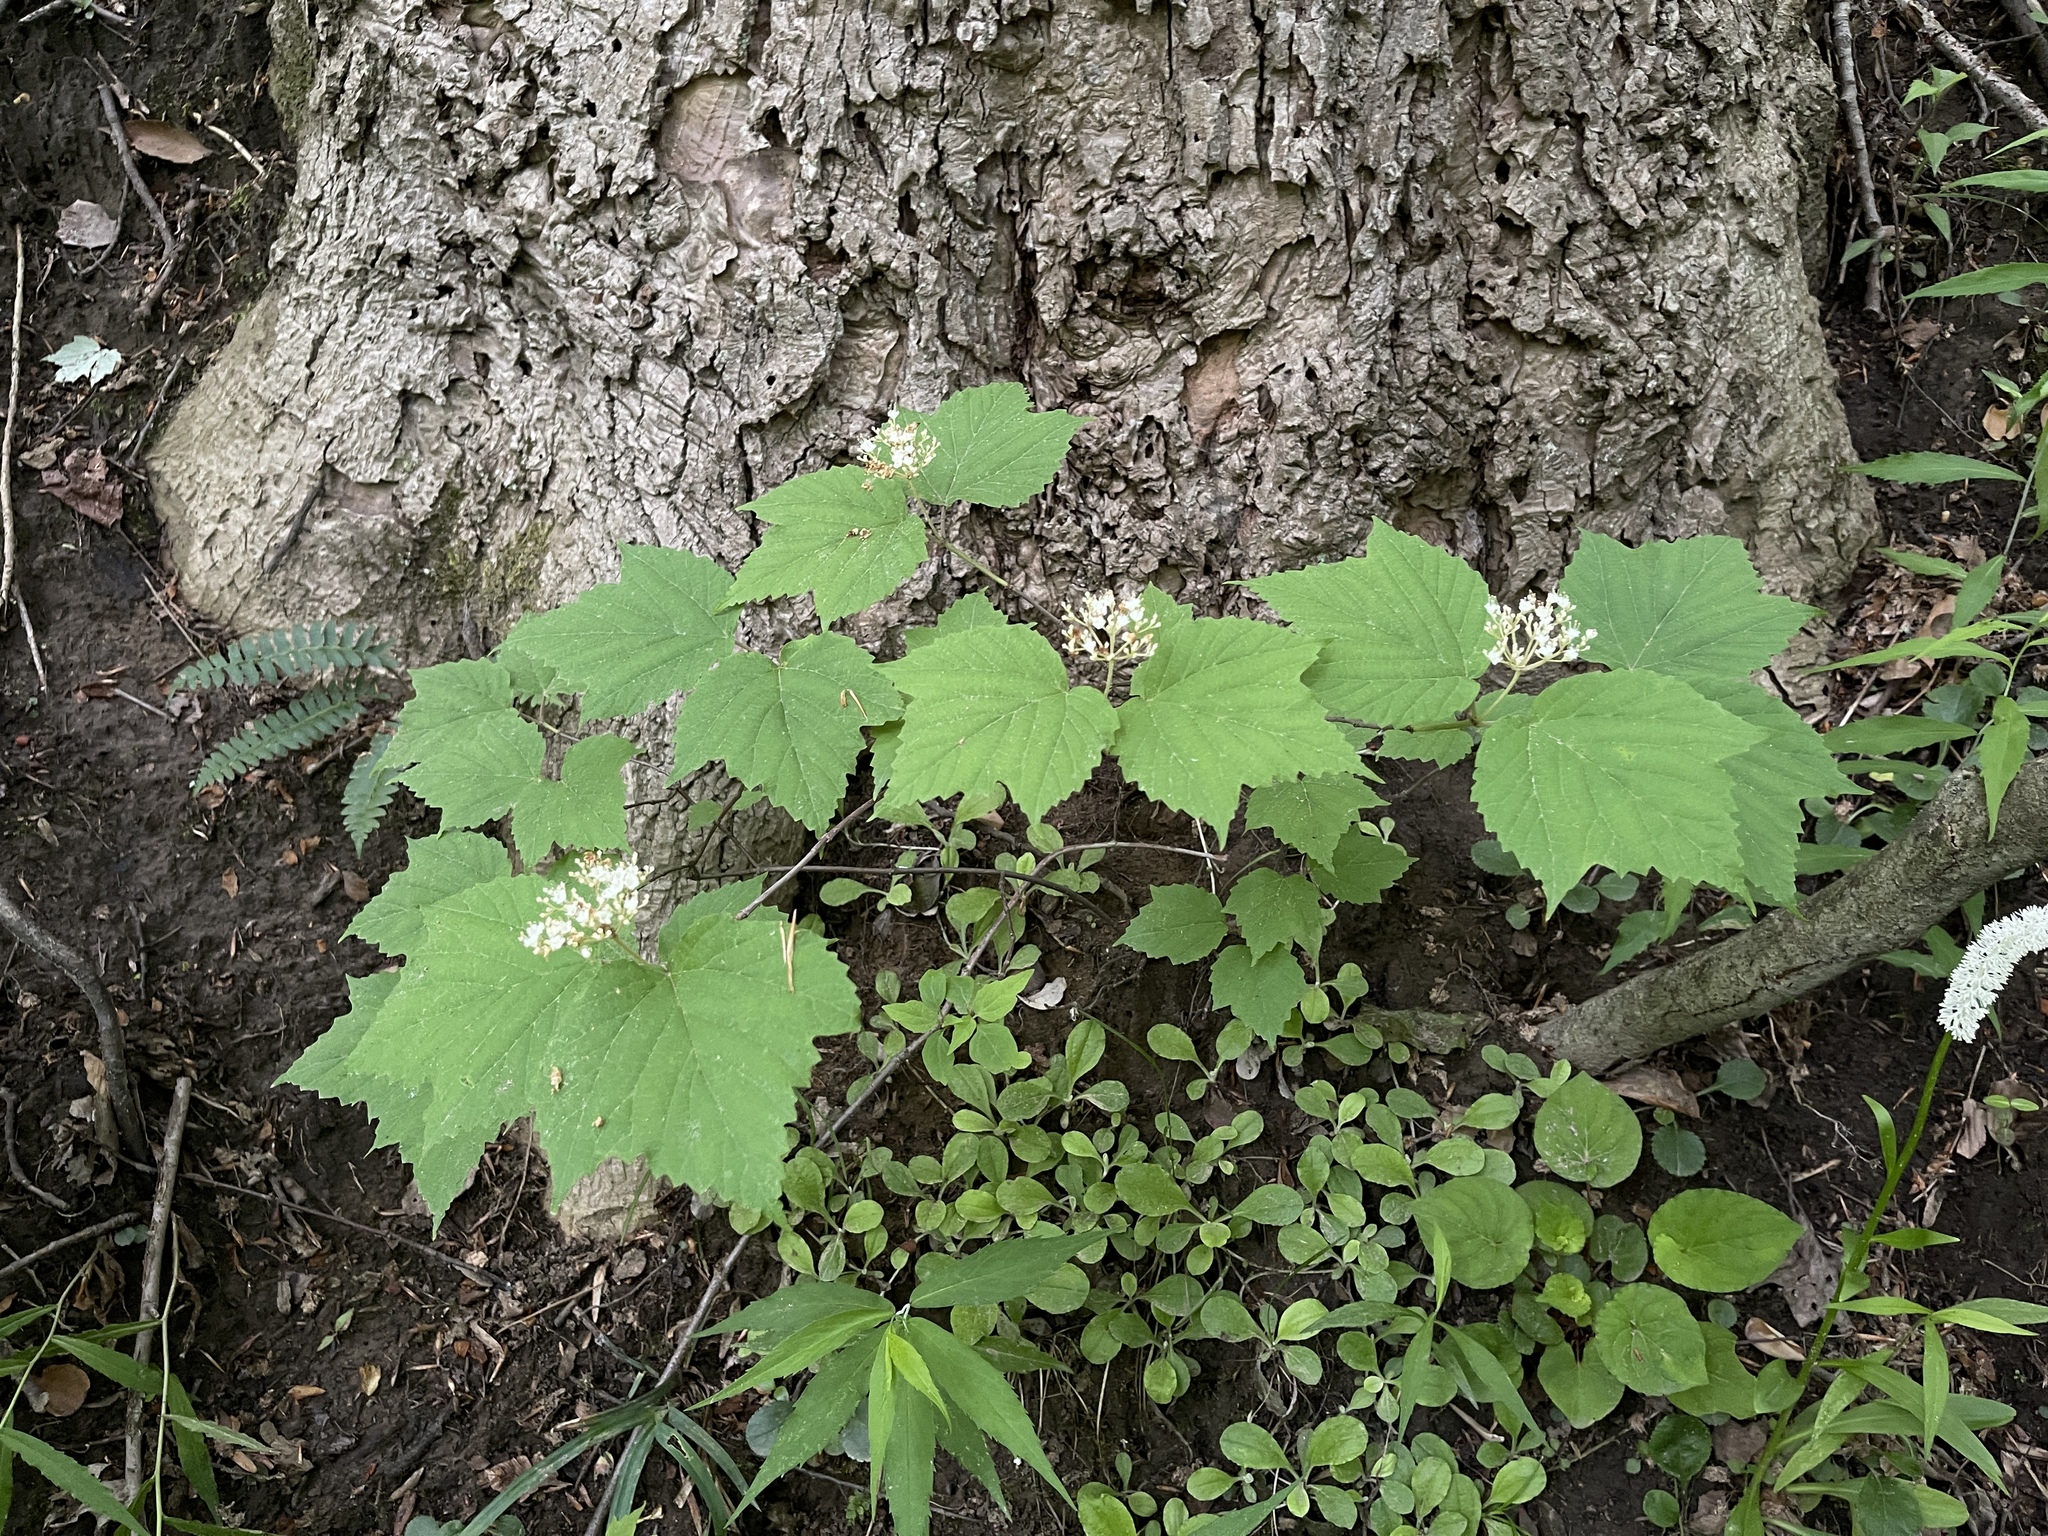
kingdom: Plantae
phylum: Tracheophyta
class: Magnoliopsida
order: Dipsacales
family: Viburnaceae
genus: Viburnum
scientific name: Viburnum acerifolium
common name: Dockmackie
